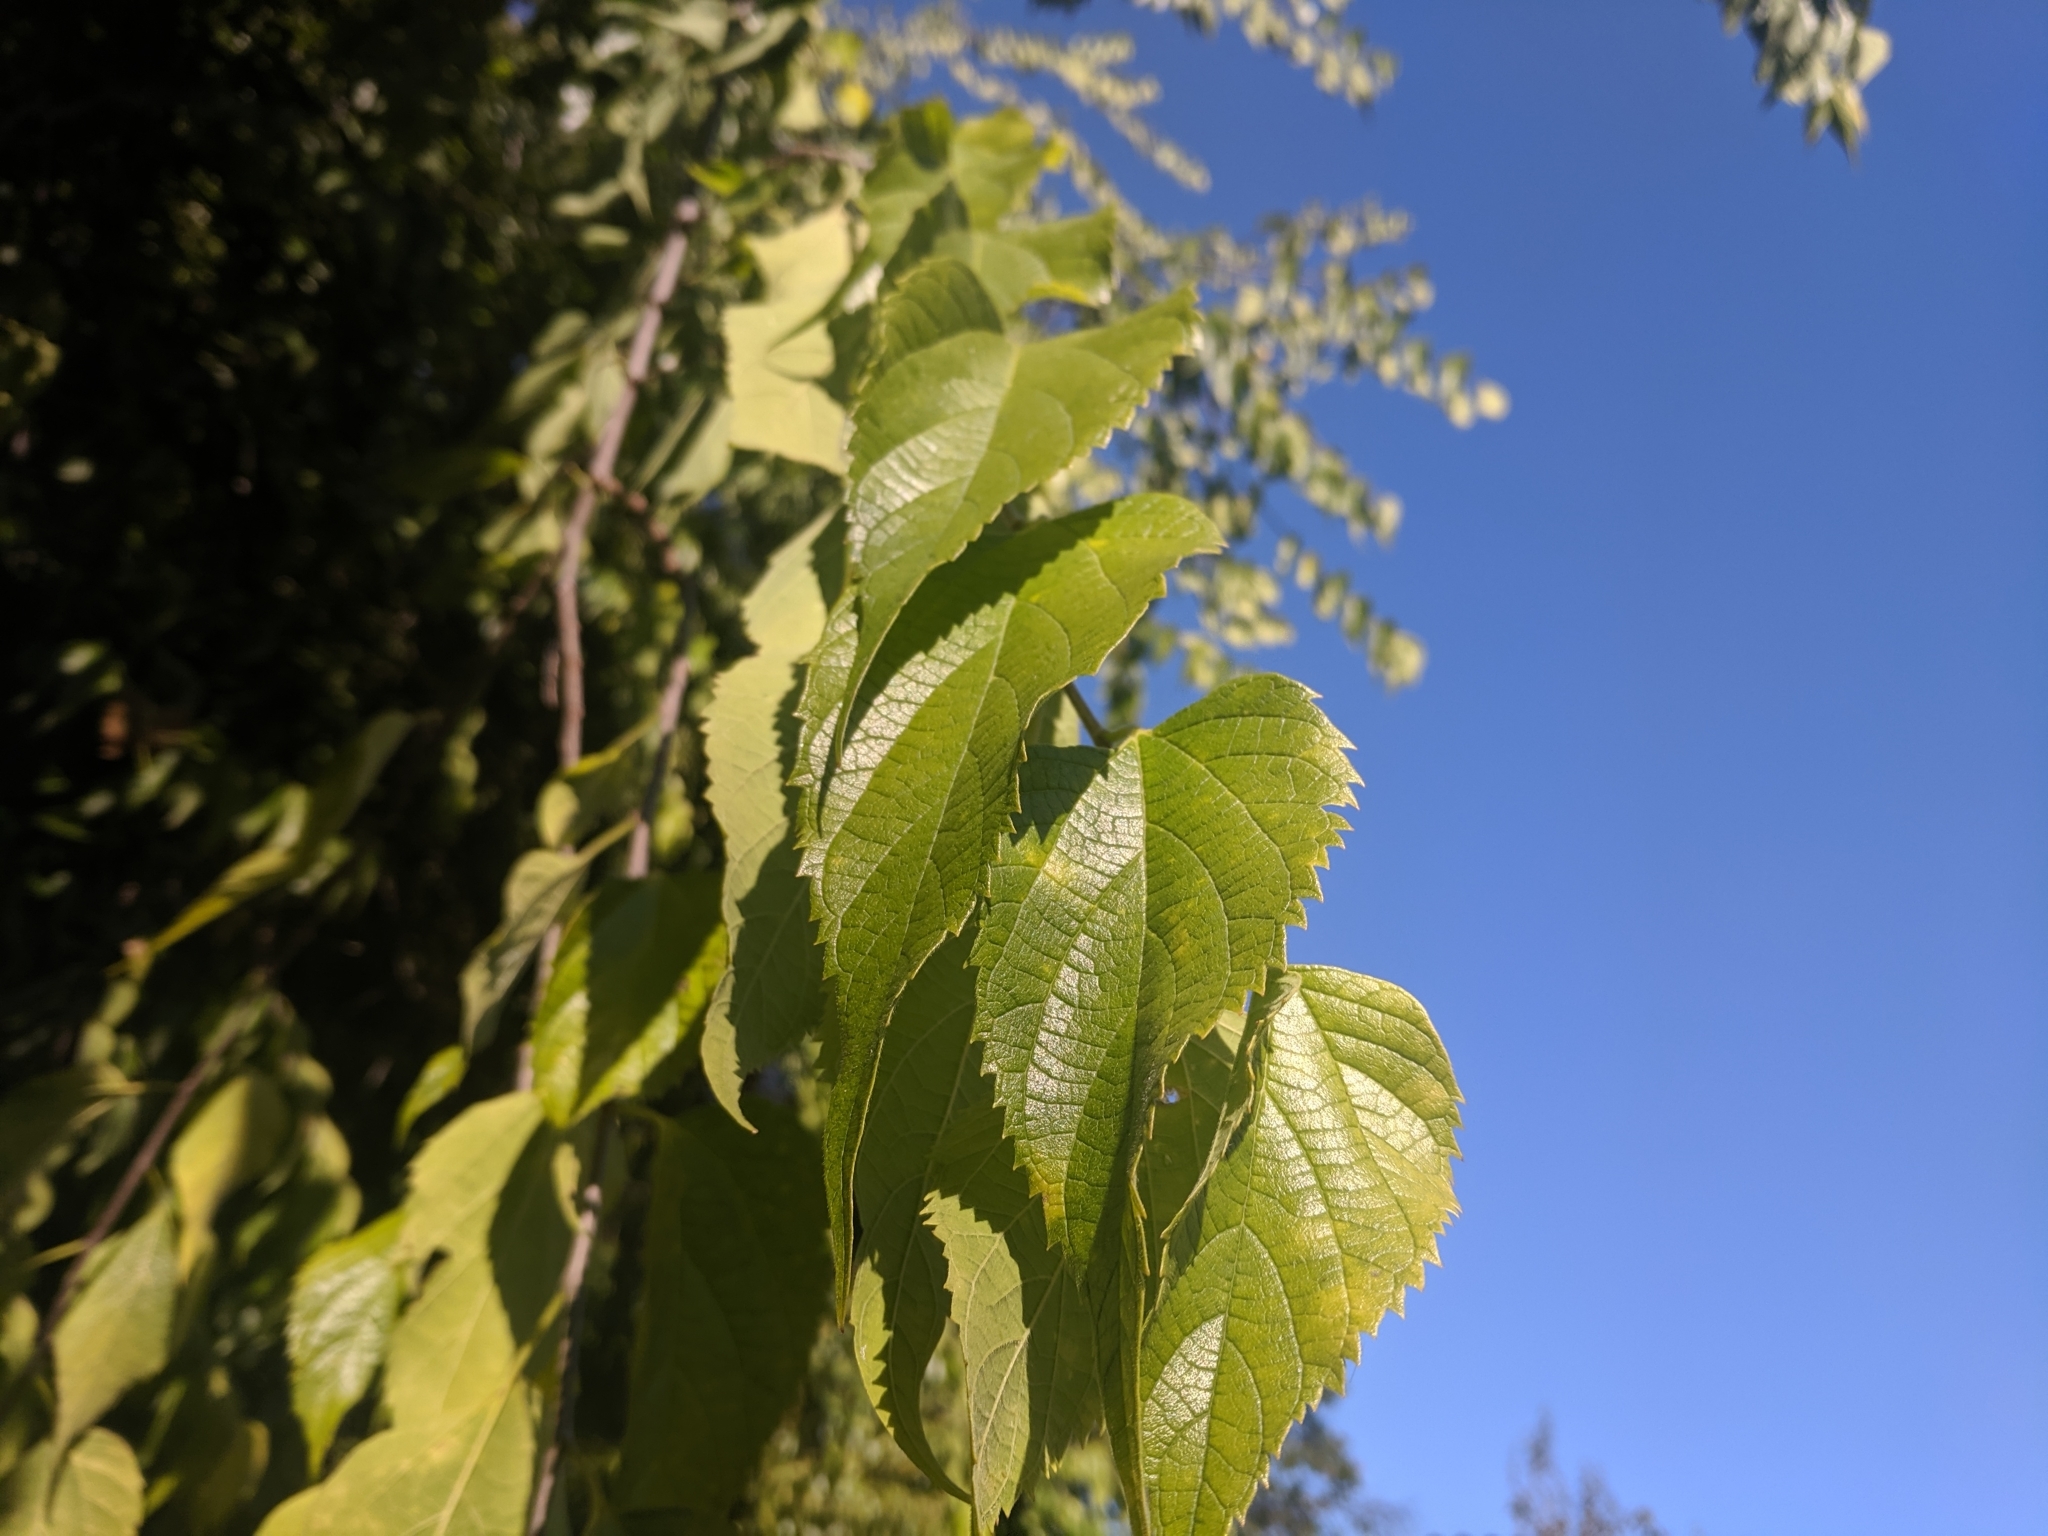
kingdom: Plantae
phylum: Tracheophyta
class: Magnoliopsida
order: Rosales
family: Cannabaceae
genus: Celtis
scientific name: Celtis occidentalis
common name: Common hackberry
